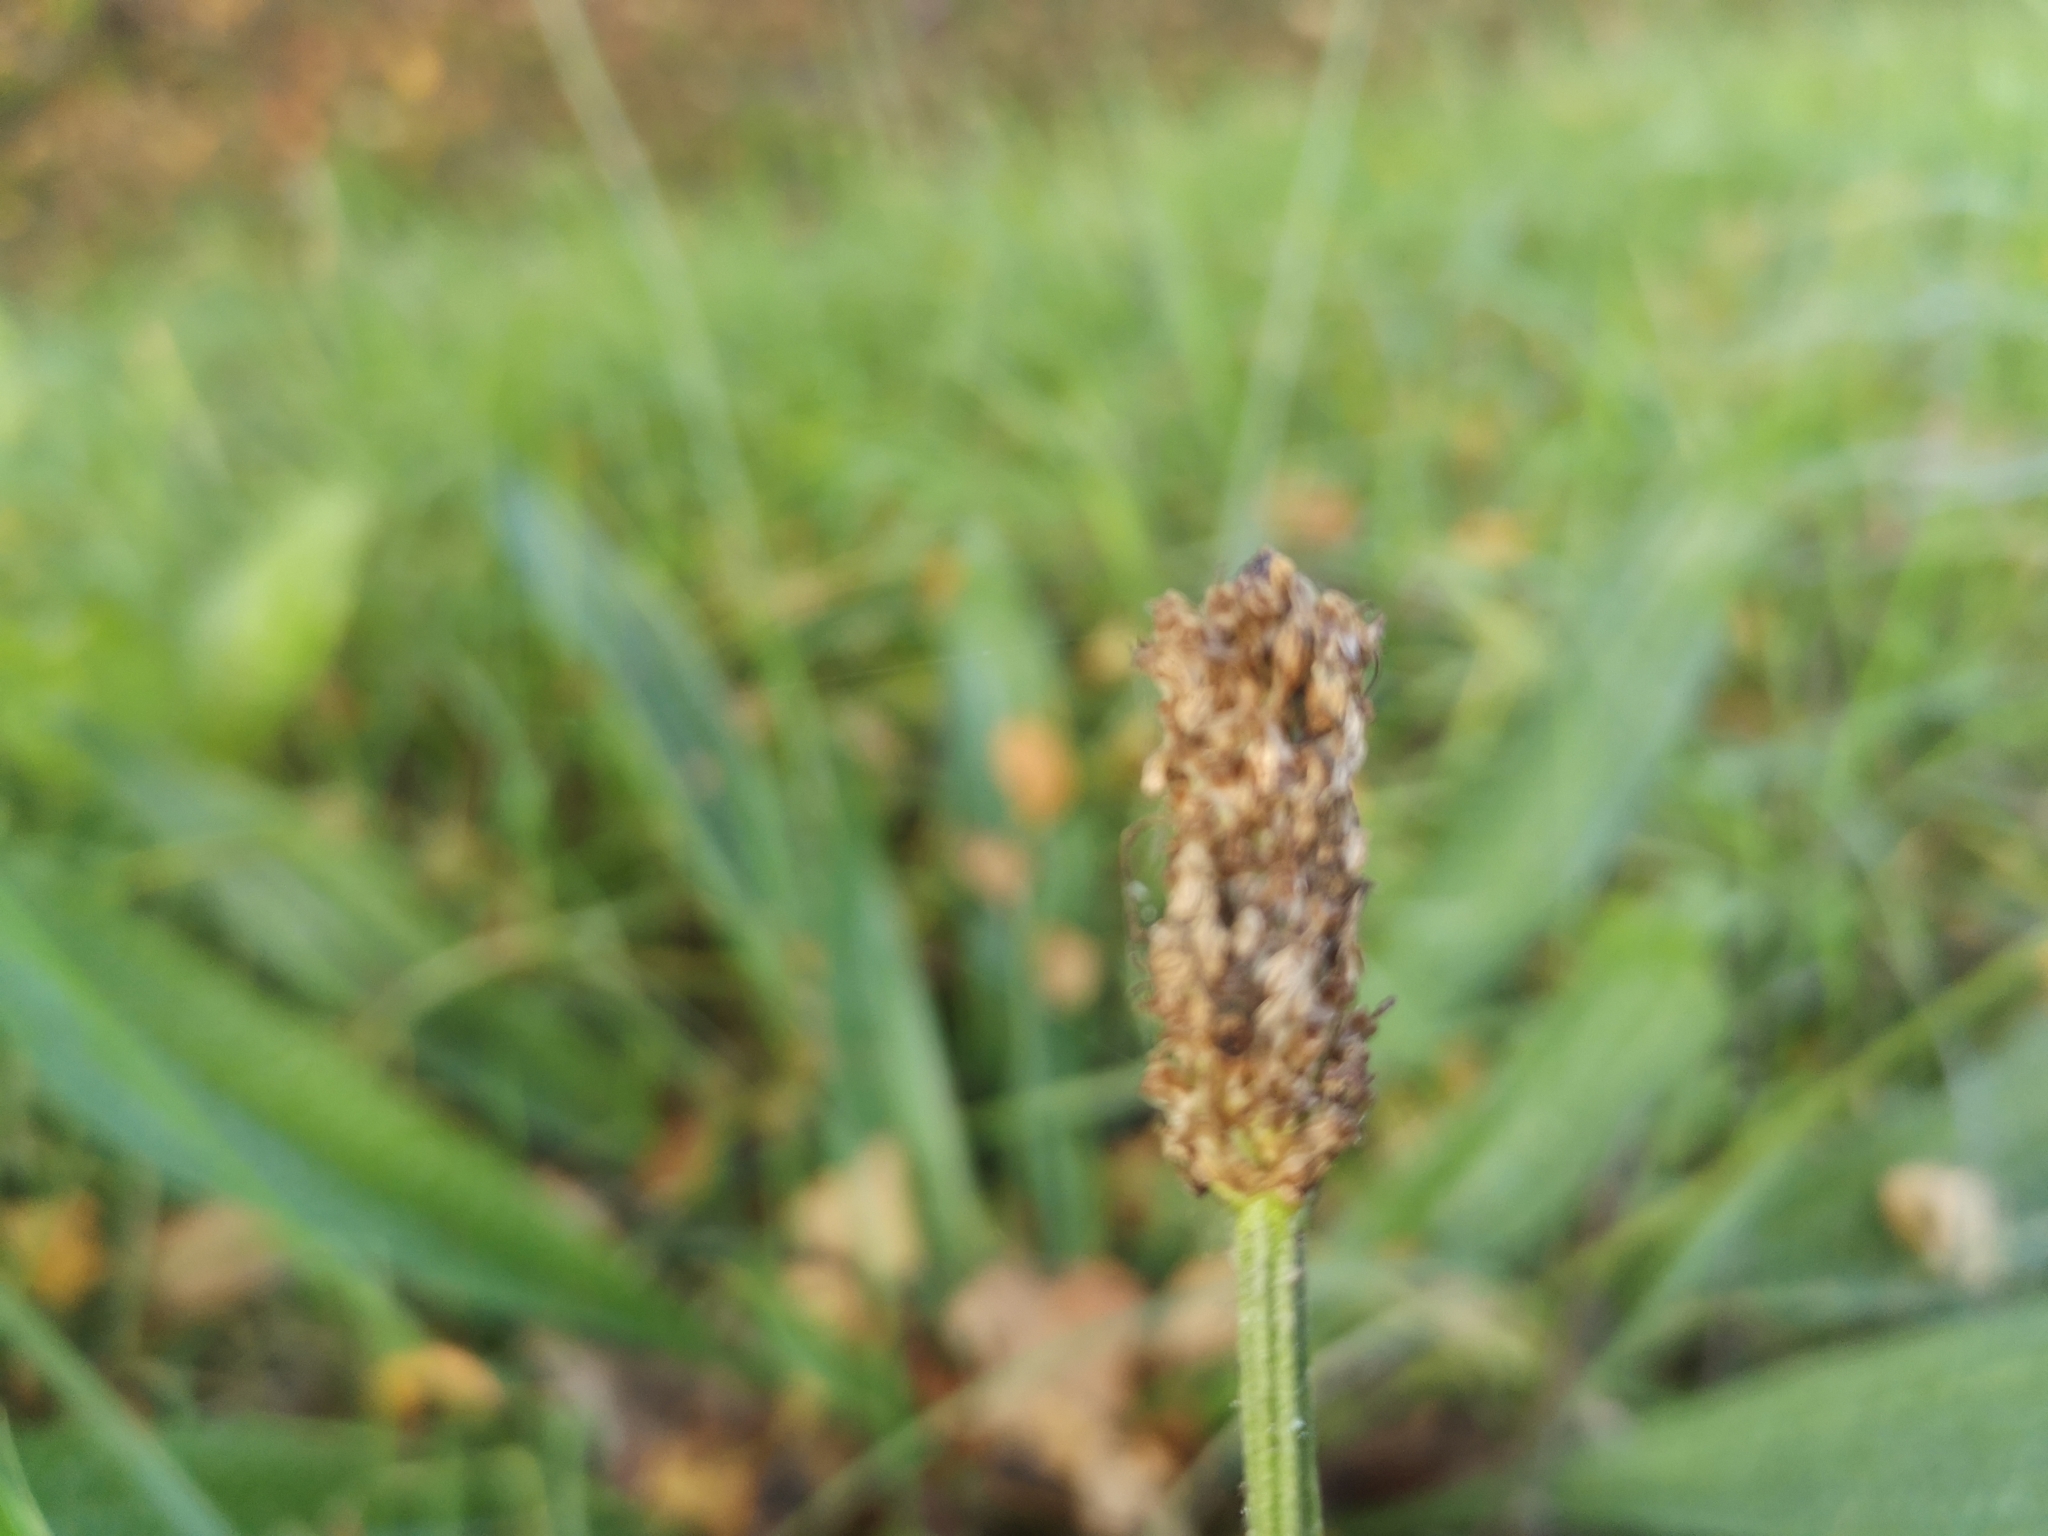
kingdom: Plantae
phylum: Tracheophyta
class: Magnoliopsida
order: Lamiales
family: Plantaginaceae
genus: Plantago
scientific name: Plantago lanceolata
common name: Ribwort plantain
